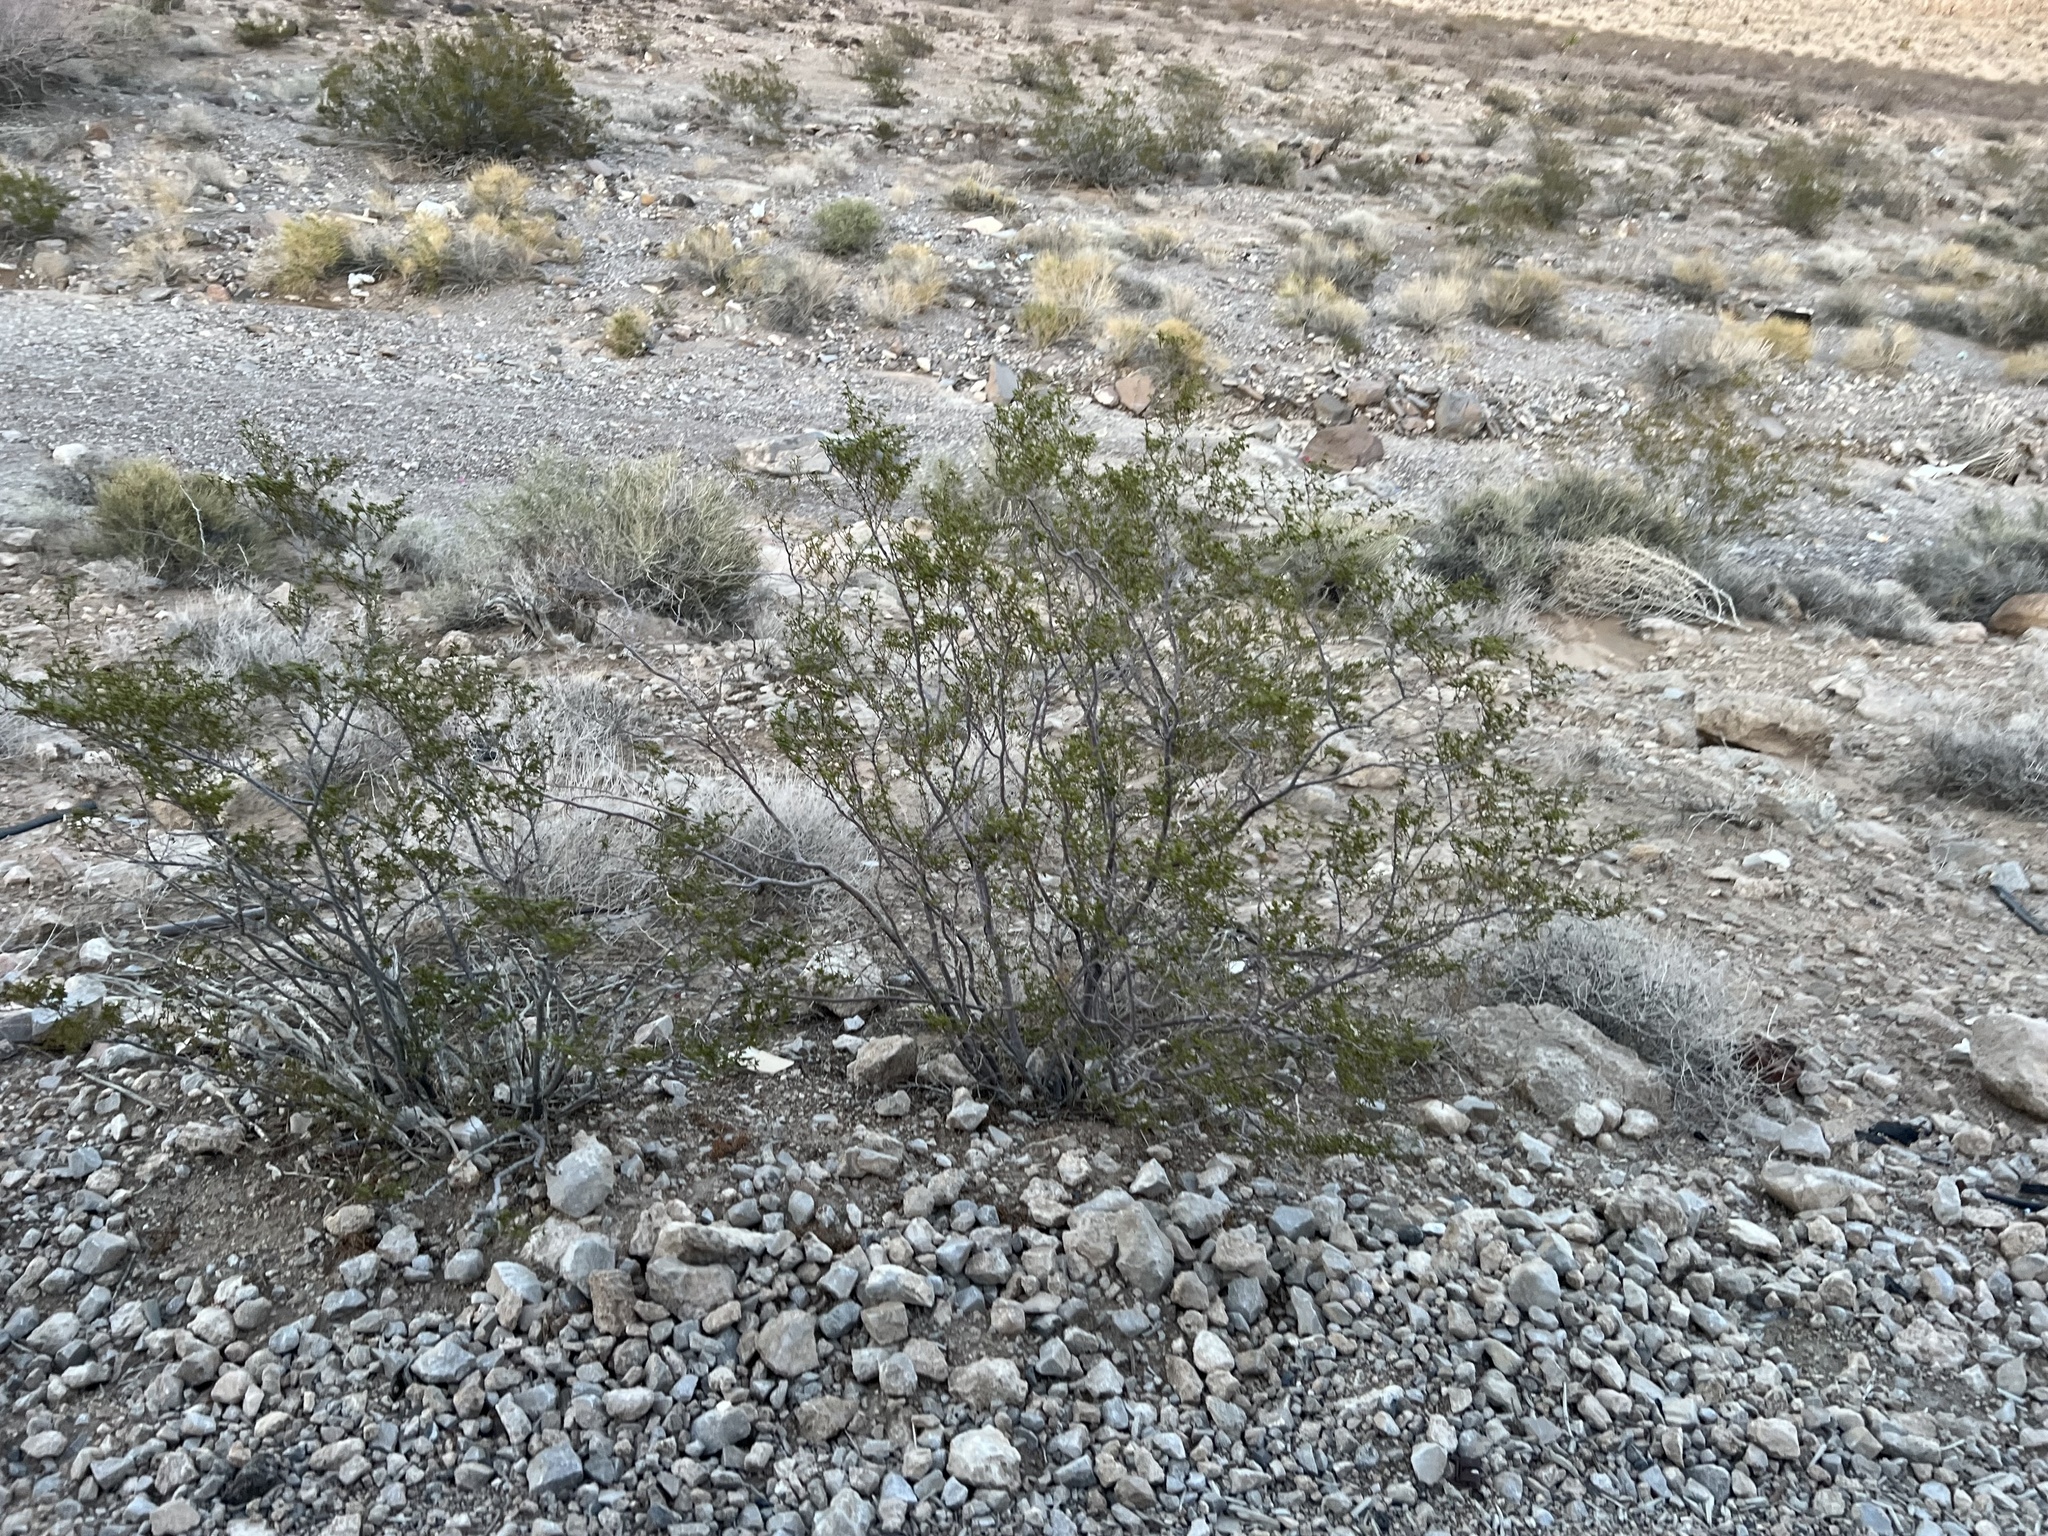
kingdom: Plantae
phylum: Tracheophyta
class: Magnoliopsida
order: Zygophyllales
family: Zygophyllaceae
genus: Larrea
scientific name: Larrea tridentata
